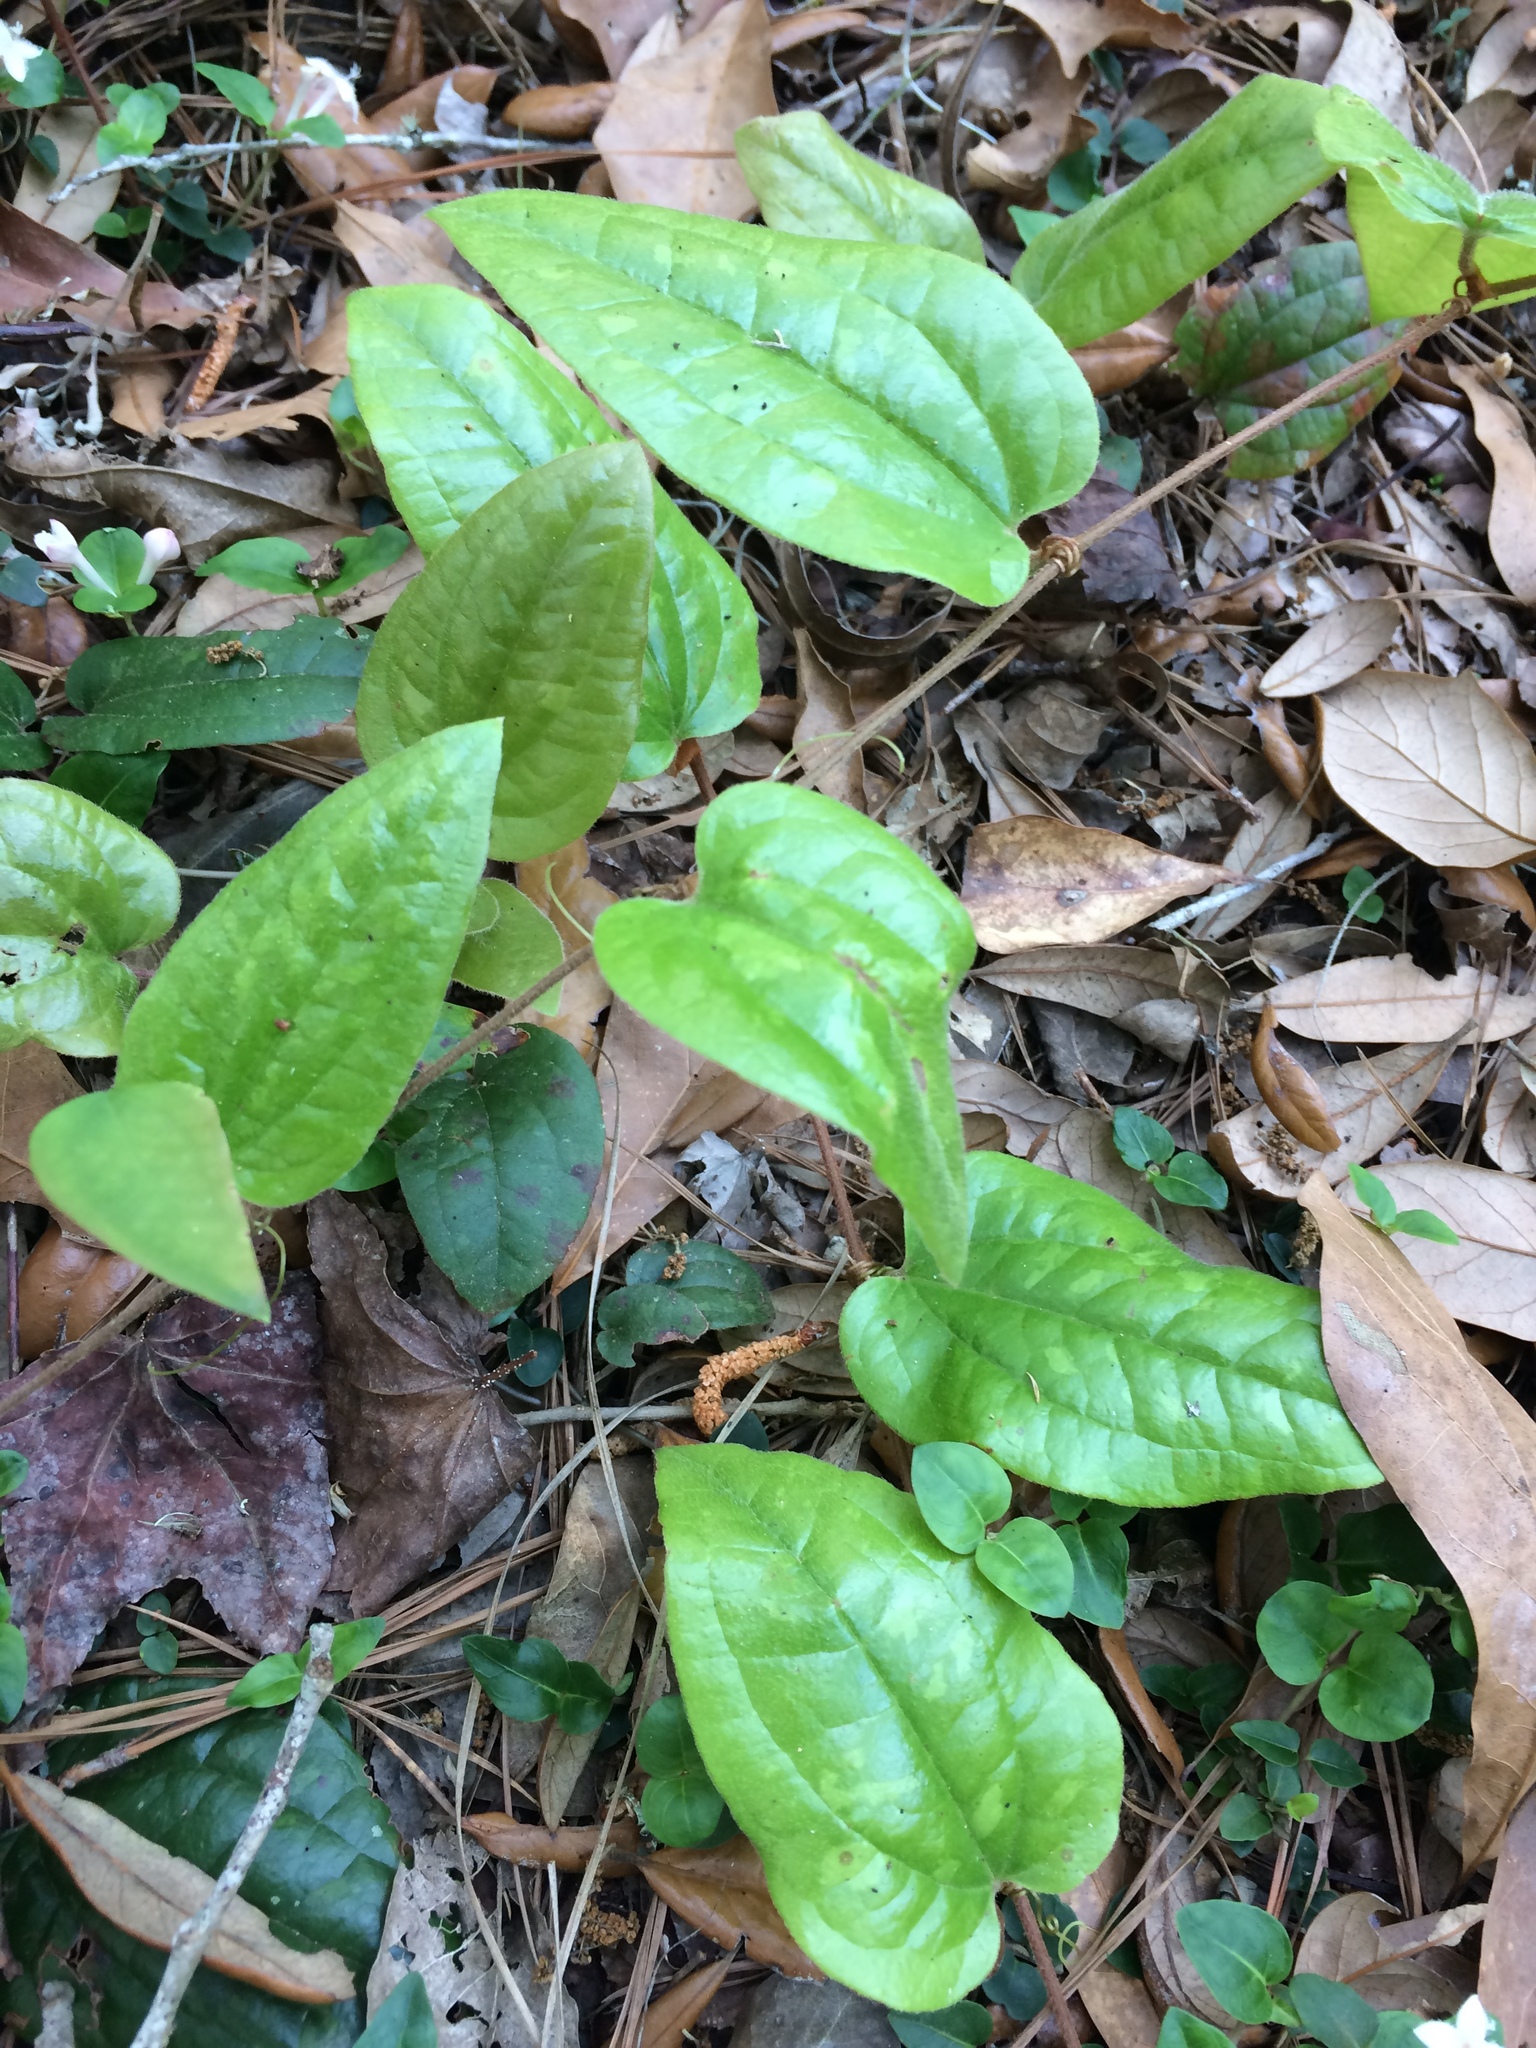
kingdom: Plantae
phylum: Tracheophyta
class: Liliopsida
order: Liliales
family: Smilacaceae
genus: Smilax
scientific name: Smilax pumila
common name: Sarsaparilla-vine
